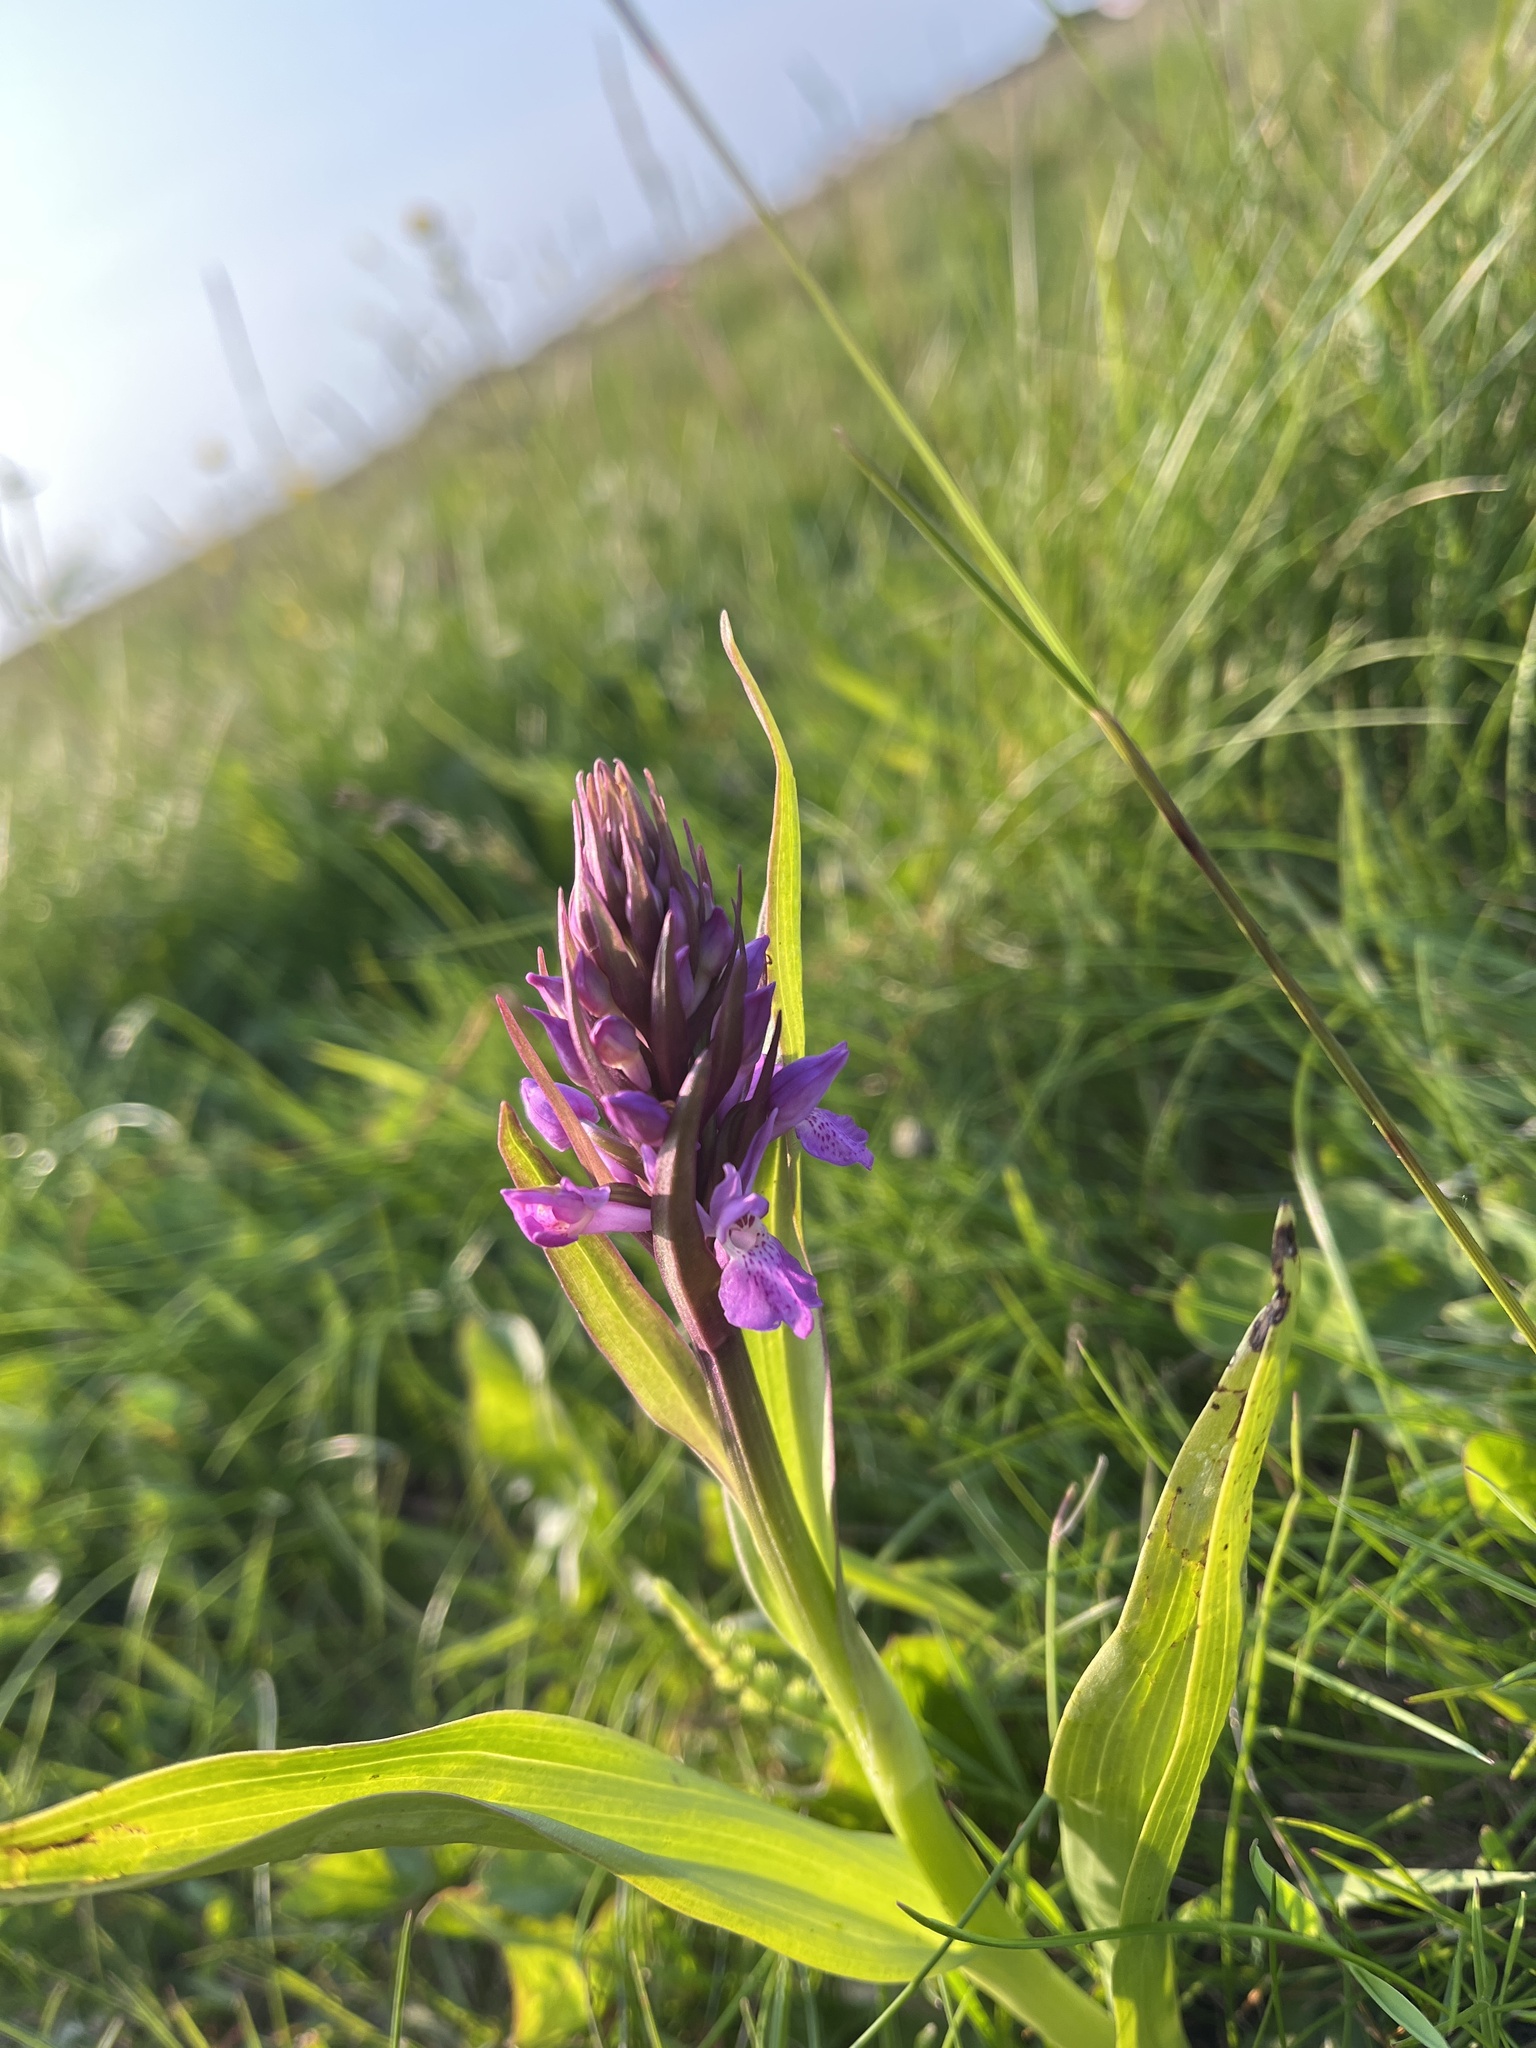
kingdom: Plantae
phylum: Tracheophyta
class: Liliopsida
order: Asparagales
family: Orchidaceae
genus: Dactylorhiza
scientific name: Dactylorhiza majalis
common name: Marsh orchid
